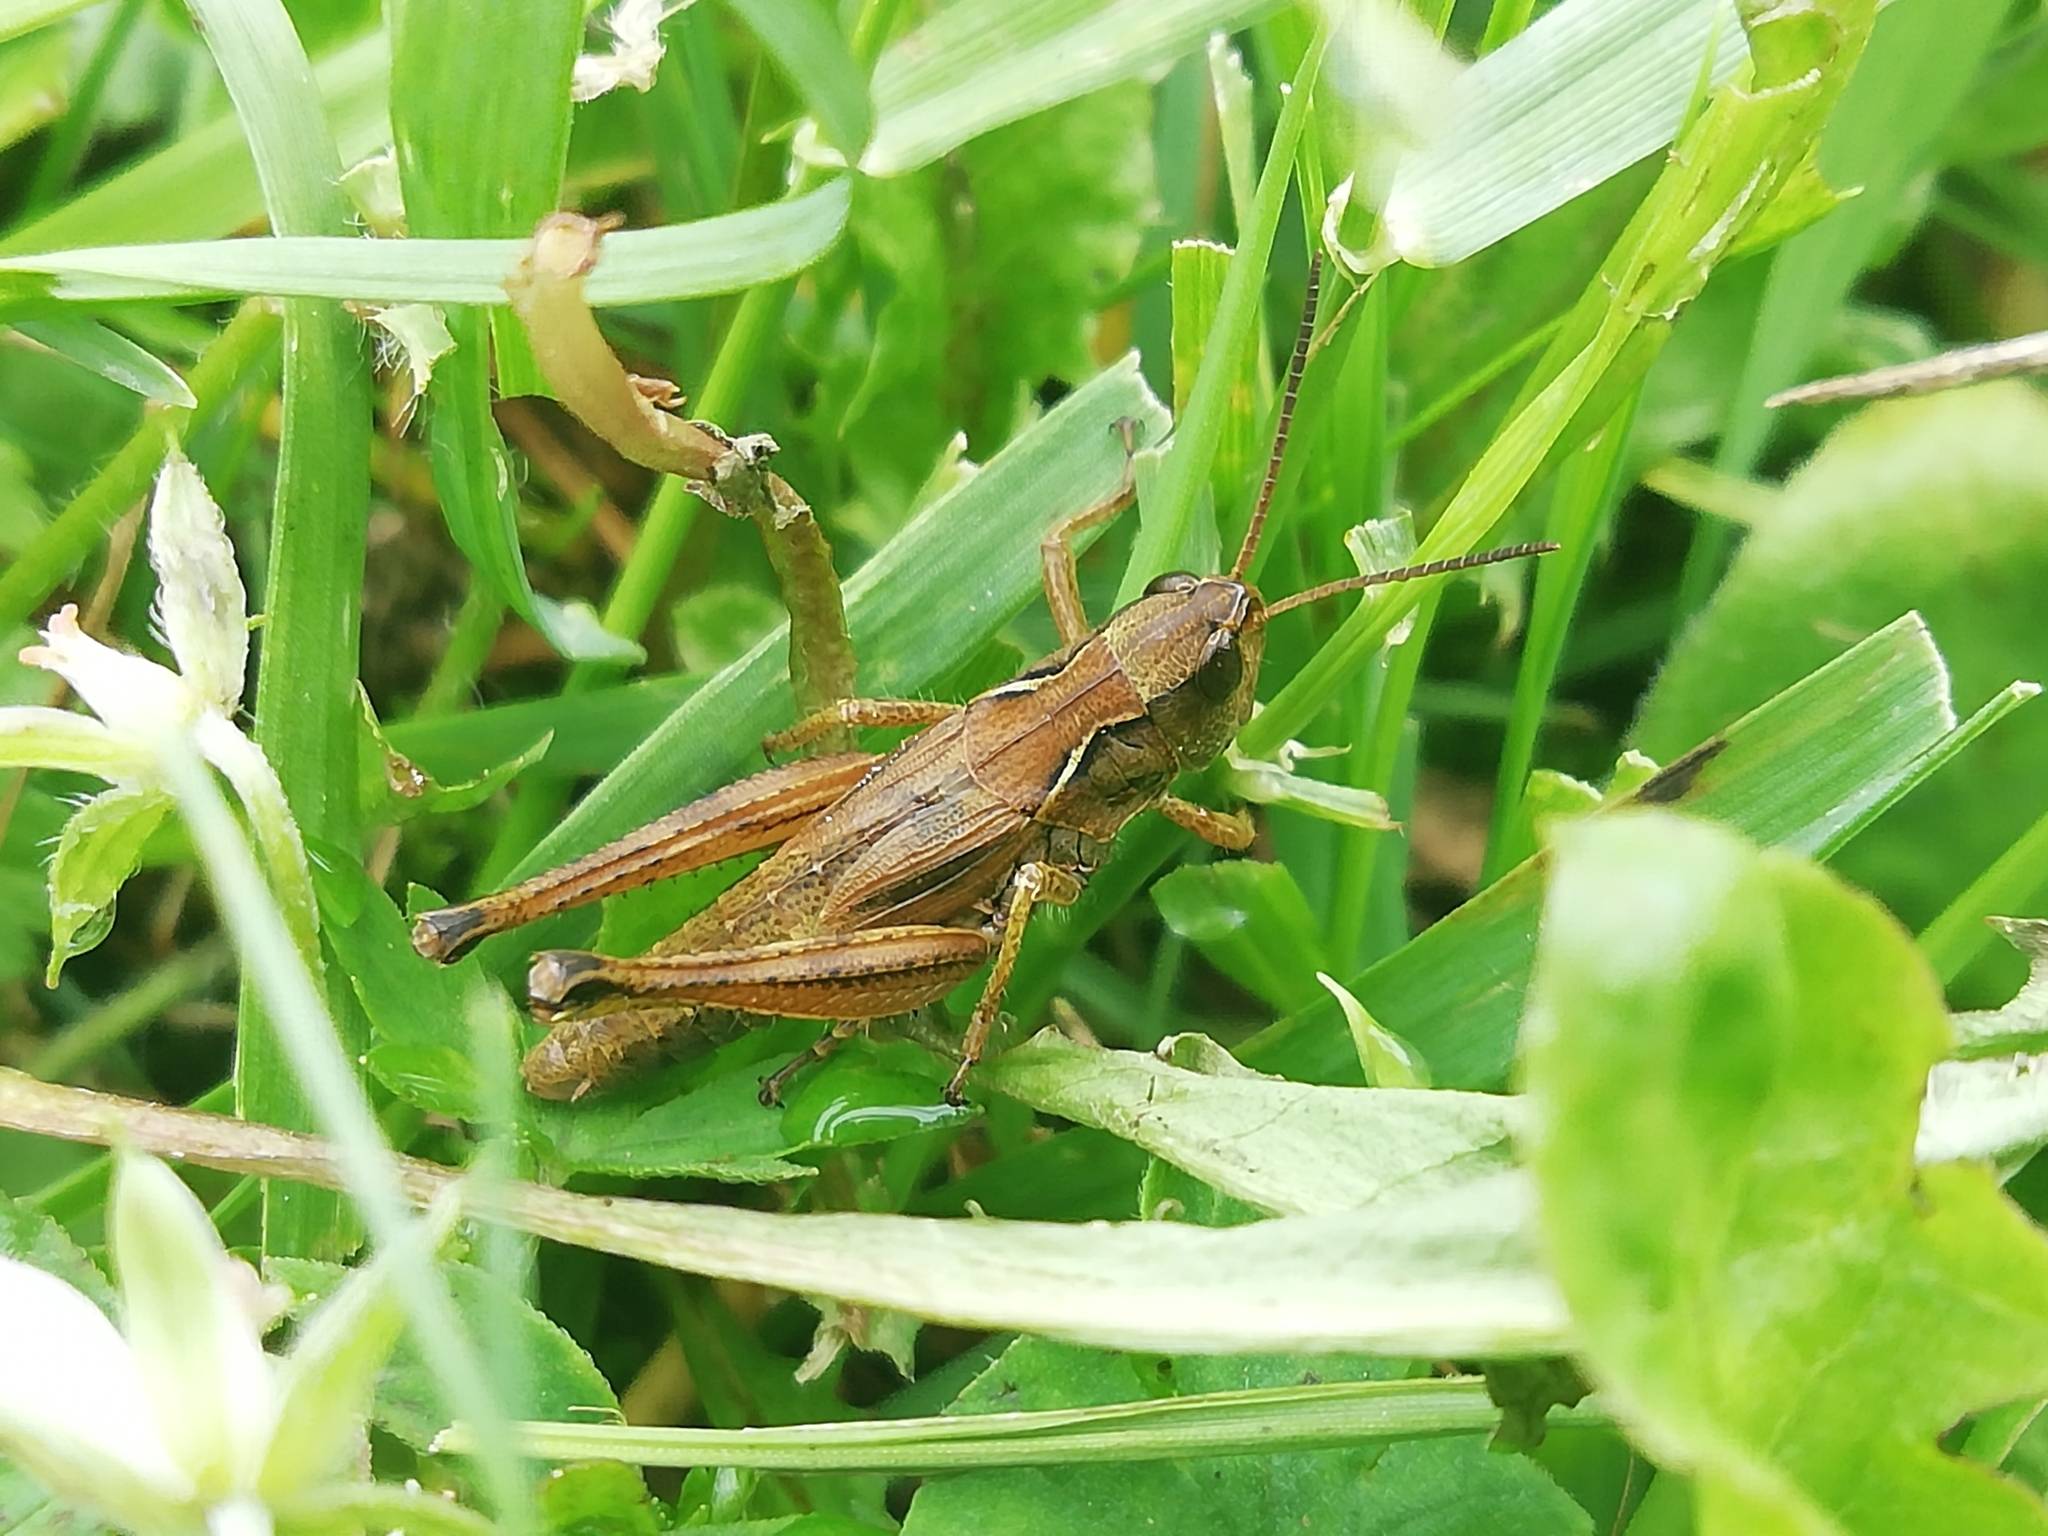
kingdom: Animalia
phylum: Arthropoda
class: Insecta
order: Orthoptera
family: Acrididae
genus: Chorthippus
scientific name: Chorthippus fallax
